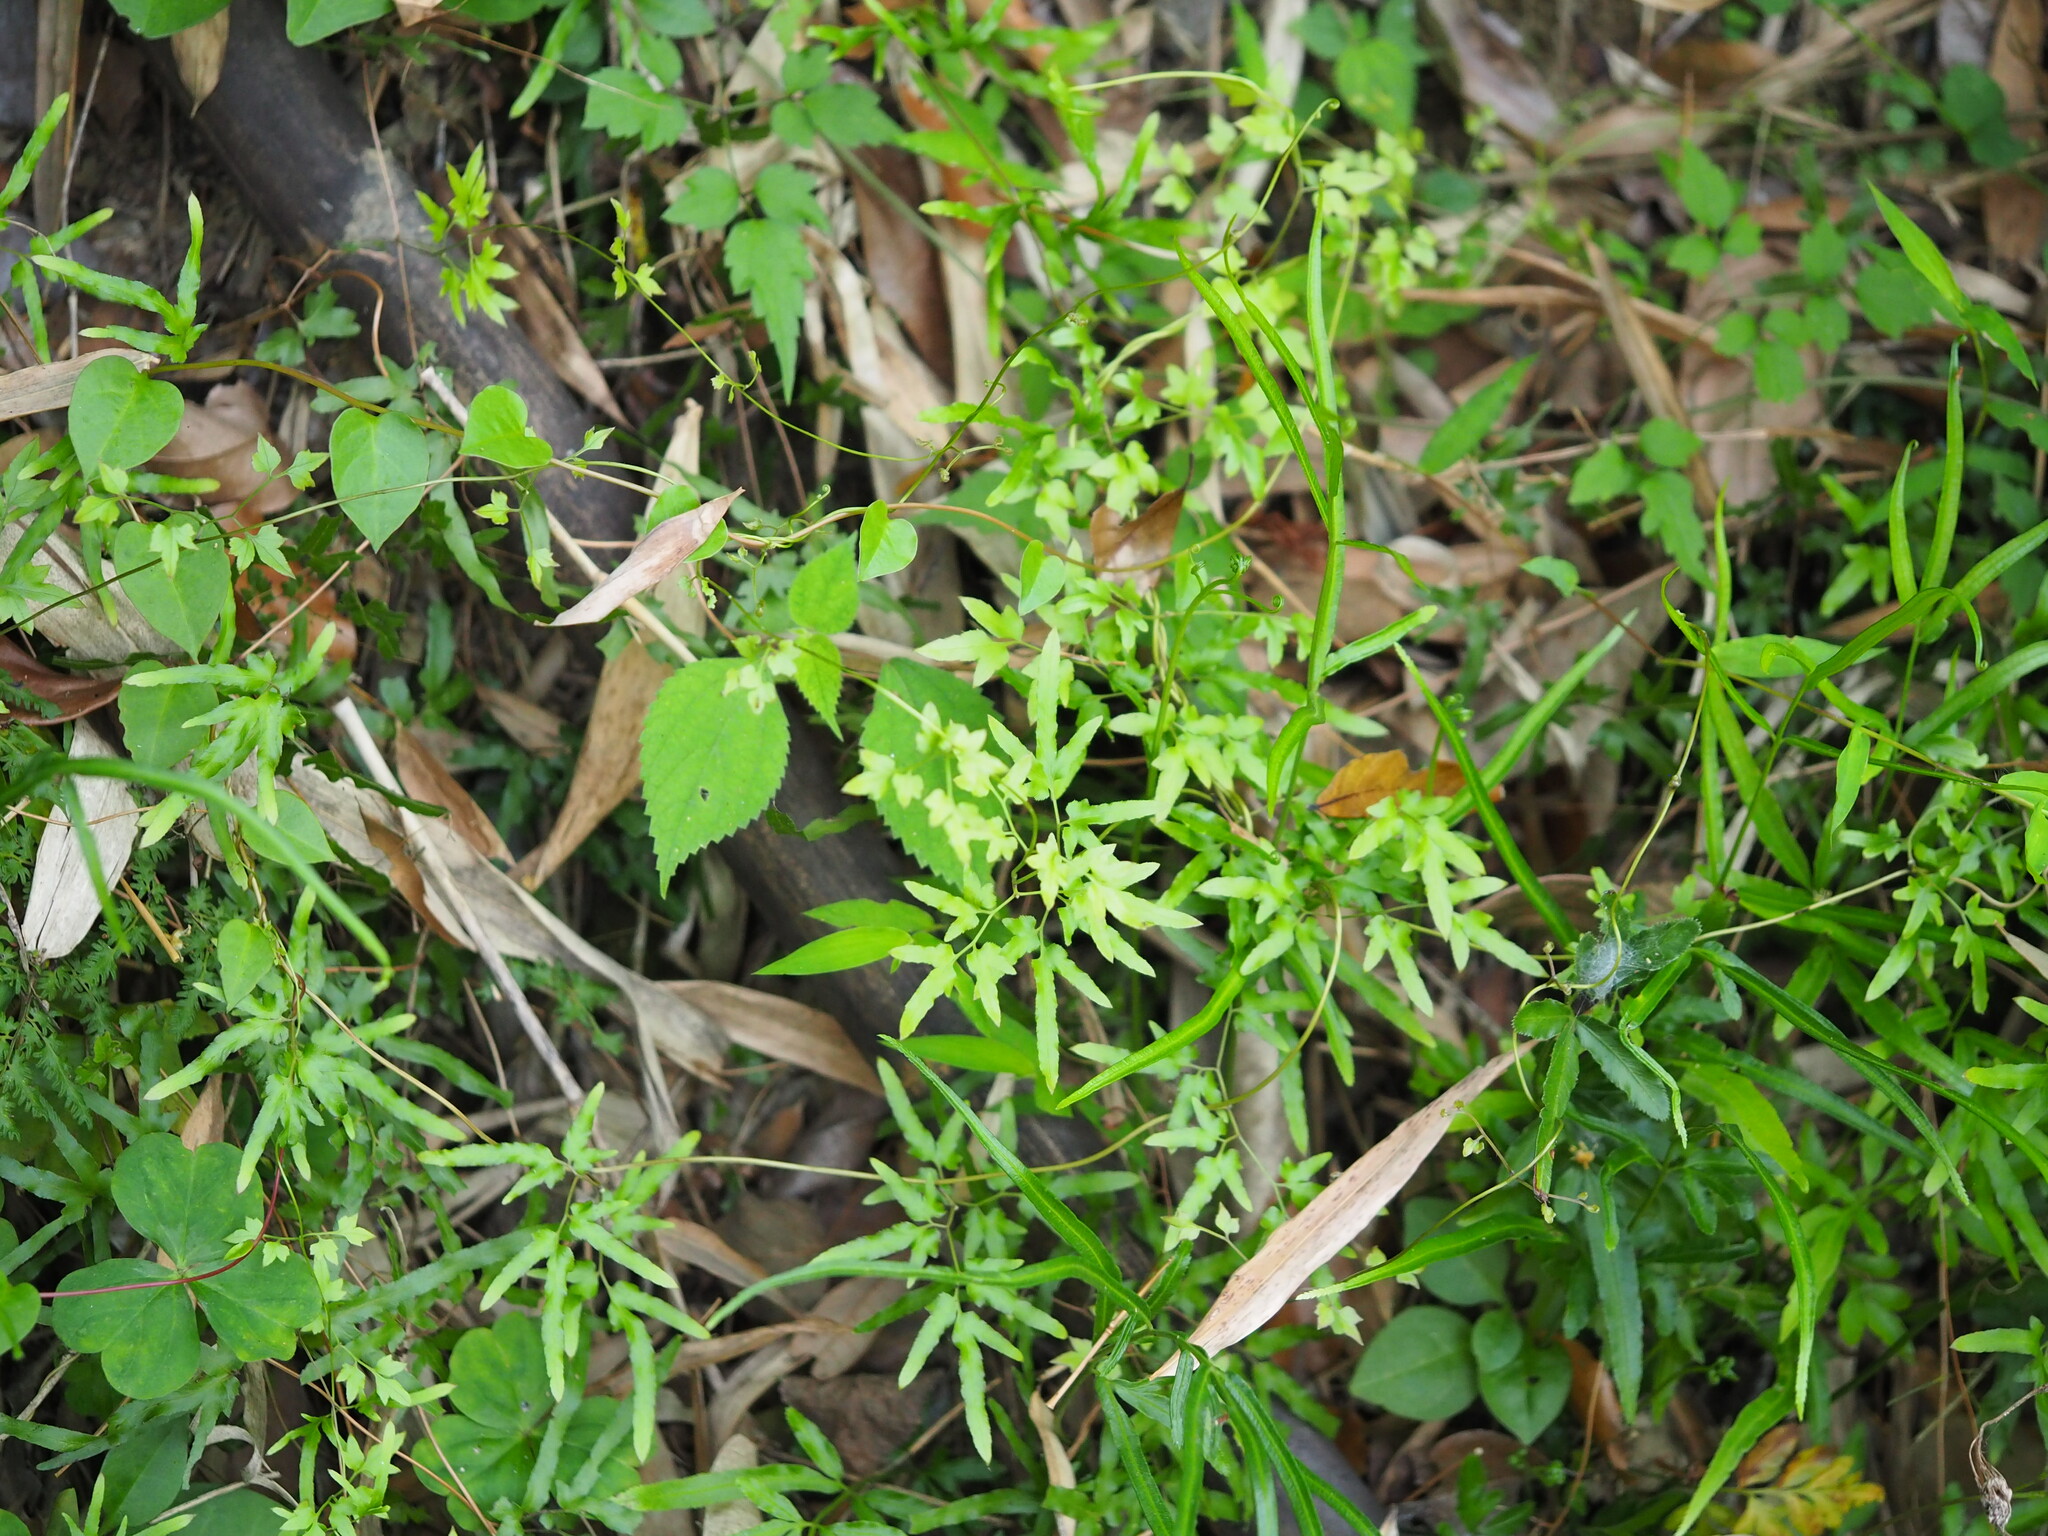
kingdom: Plantae
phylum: Tracheophyta
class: Polypodiopsida
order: Schizaeales
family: Lygodiaceae
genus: Lygodium
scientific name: Lygodium japonicum
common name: Japanese climbing fern
